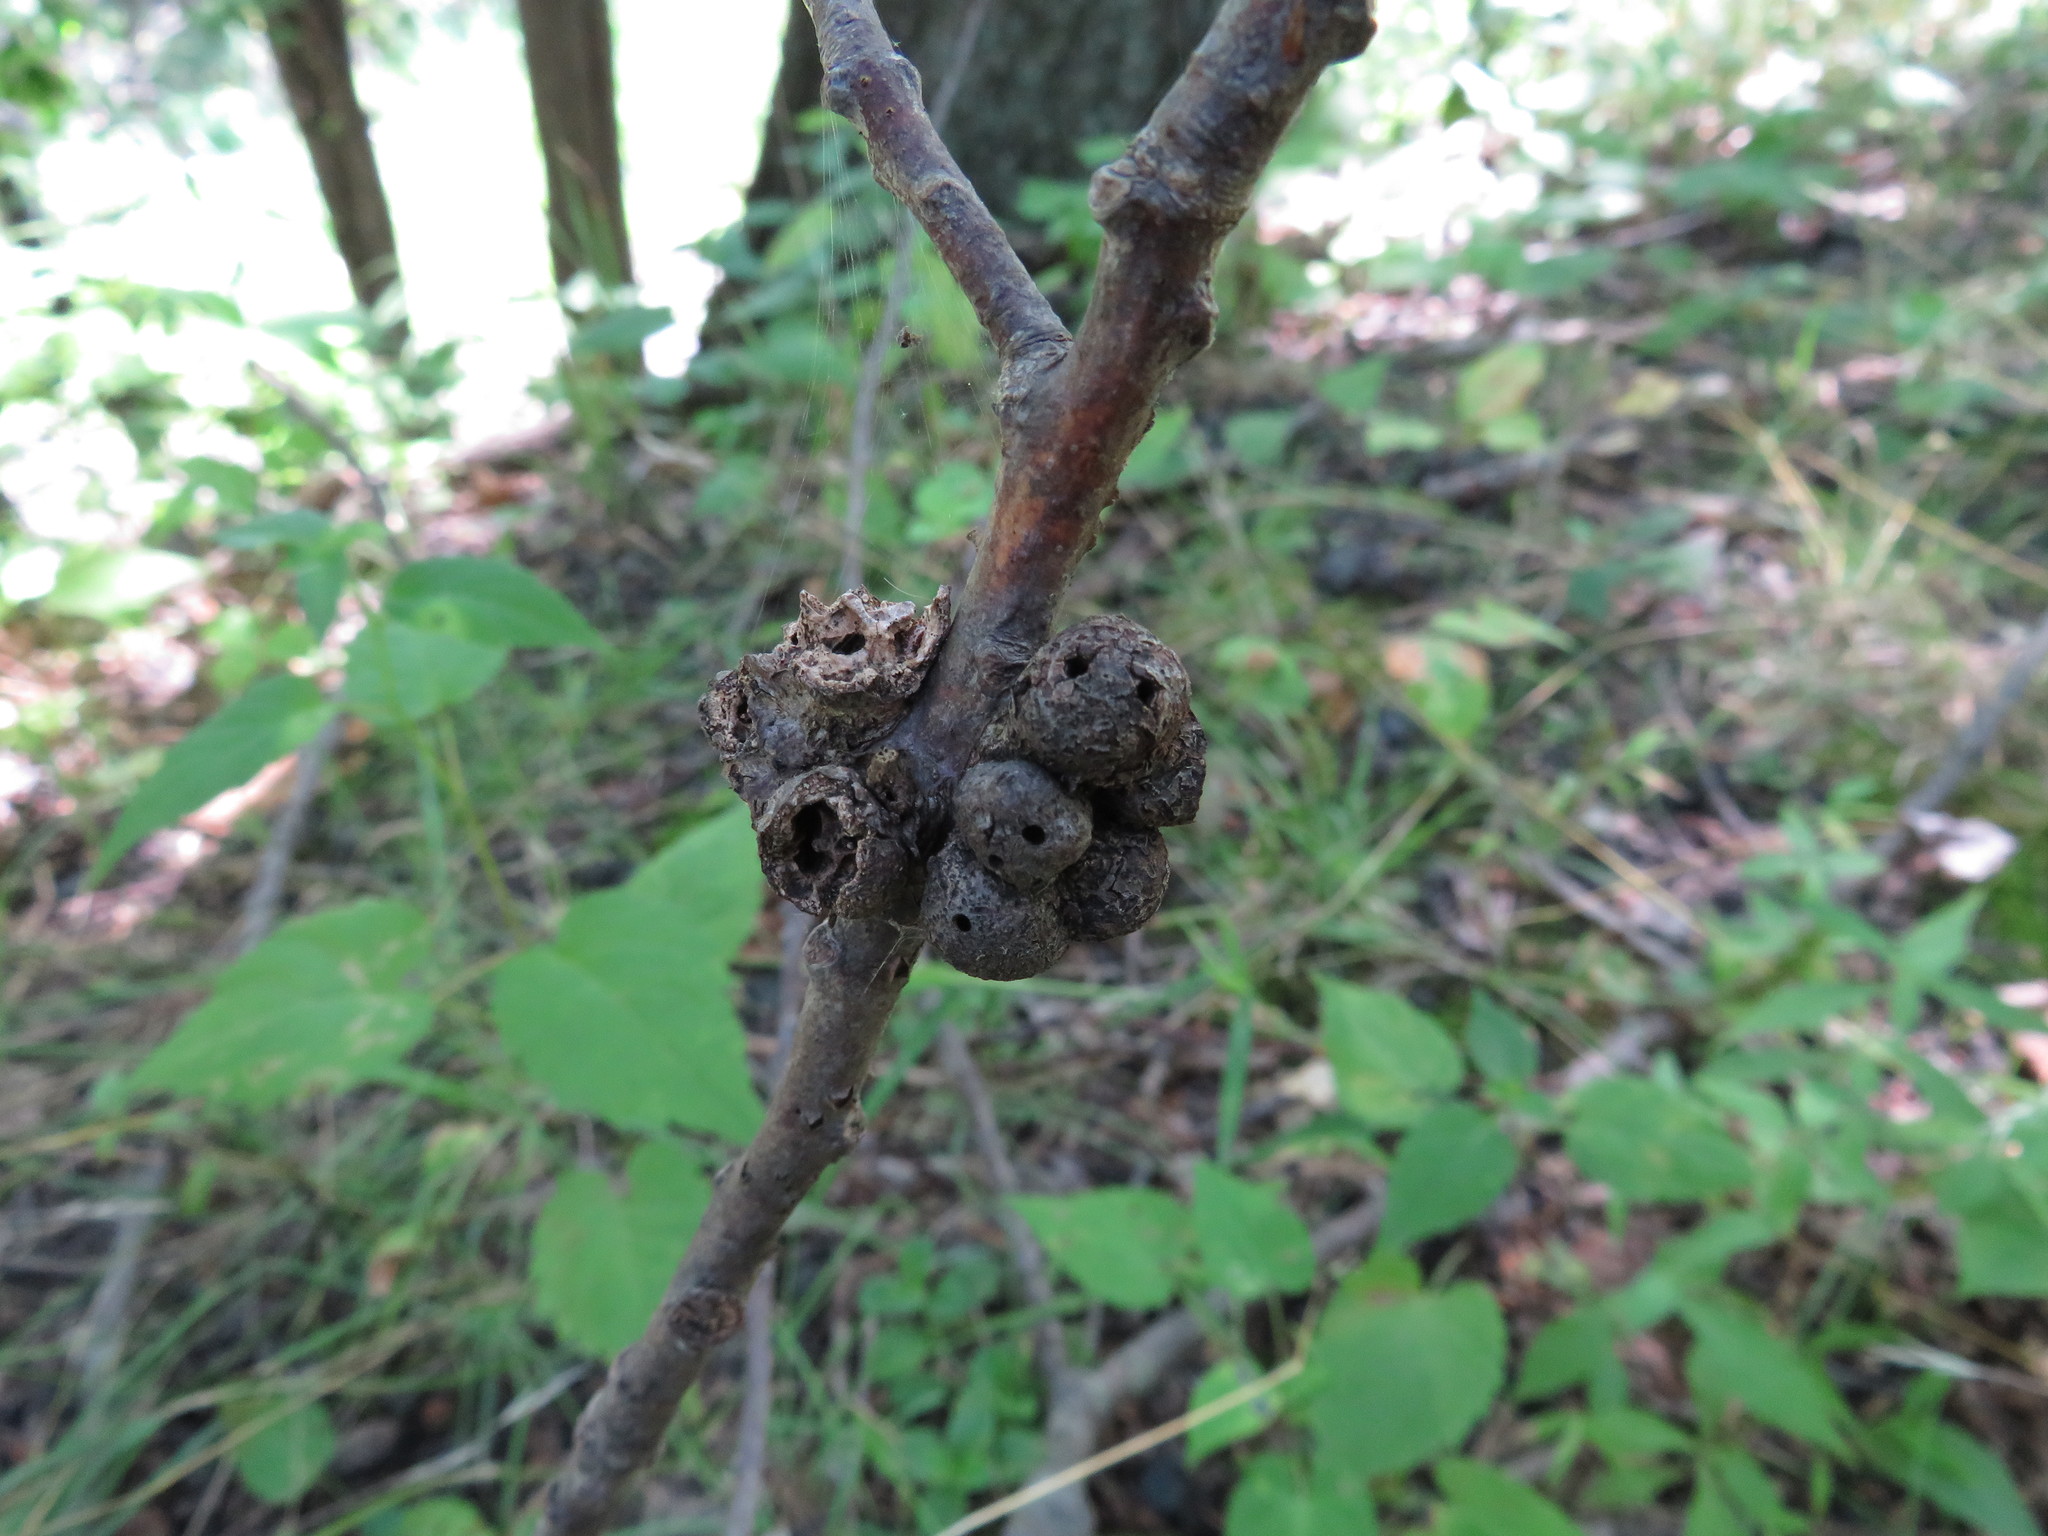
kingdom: Animalia
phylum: Arthropoda
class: Insecta
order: Hymenoptera
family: Cynipidae
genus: Callirhytis
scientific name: Callirhytis
